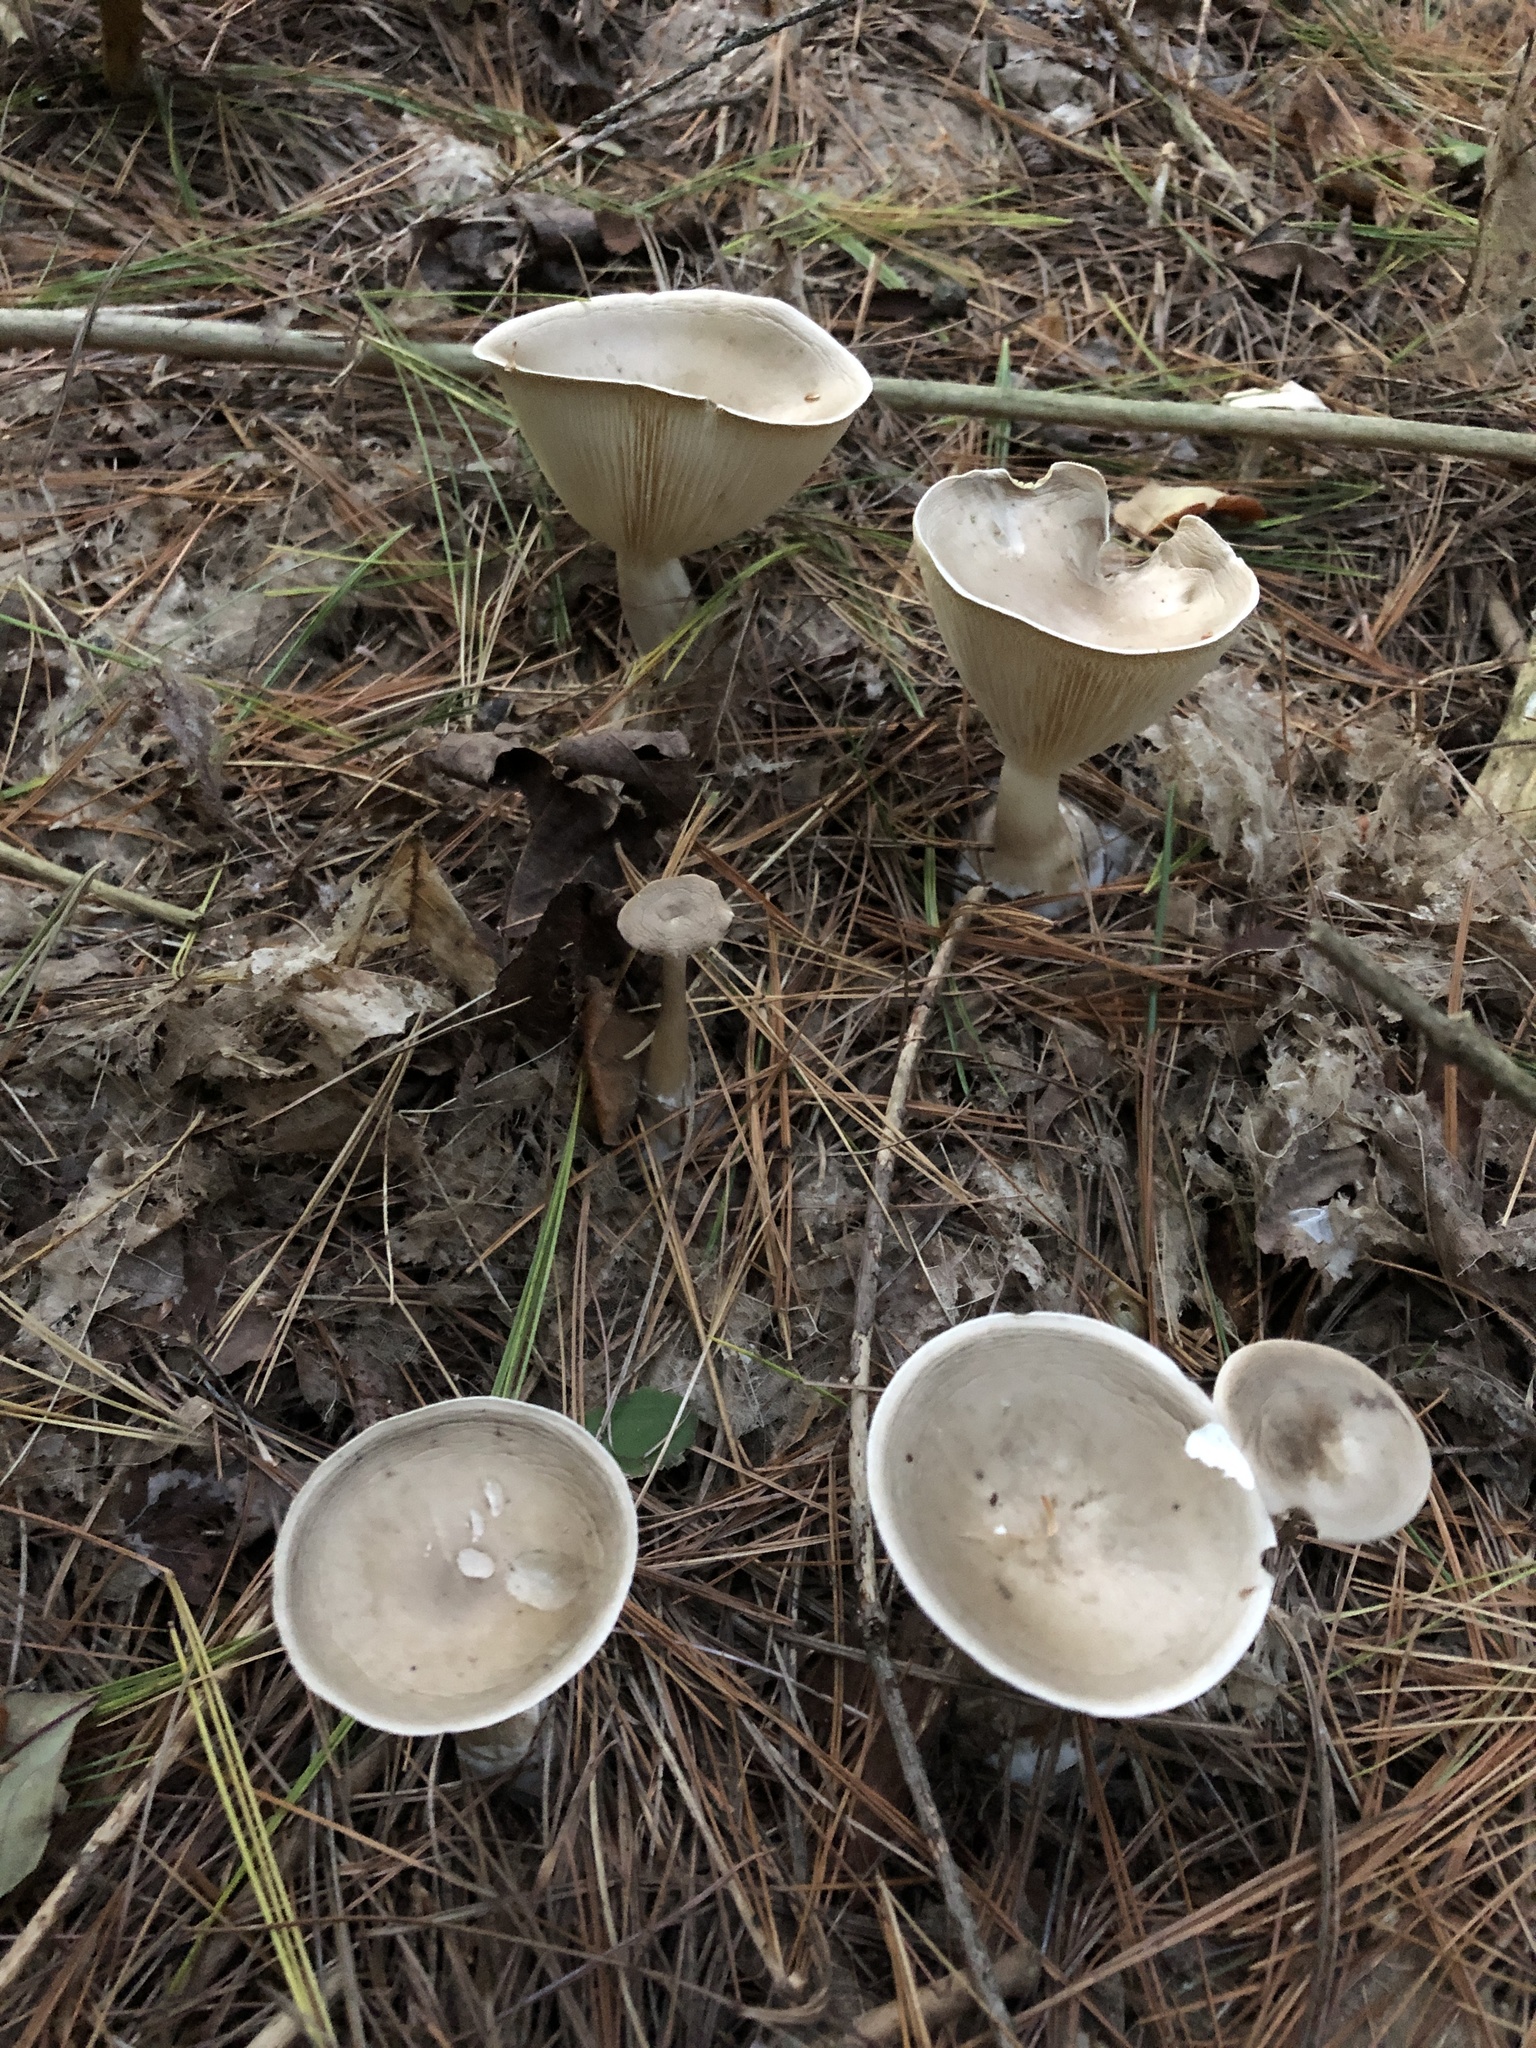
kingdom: Fungi
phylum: Basidiomycota
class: Agaricomycetes
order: Agaricales
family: Hygrophoraceae
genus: Ampulloclitocybe
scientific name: Ampulloclitocybe clavipes
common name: Club foot
